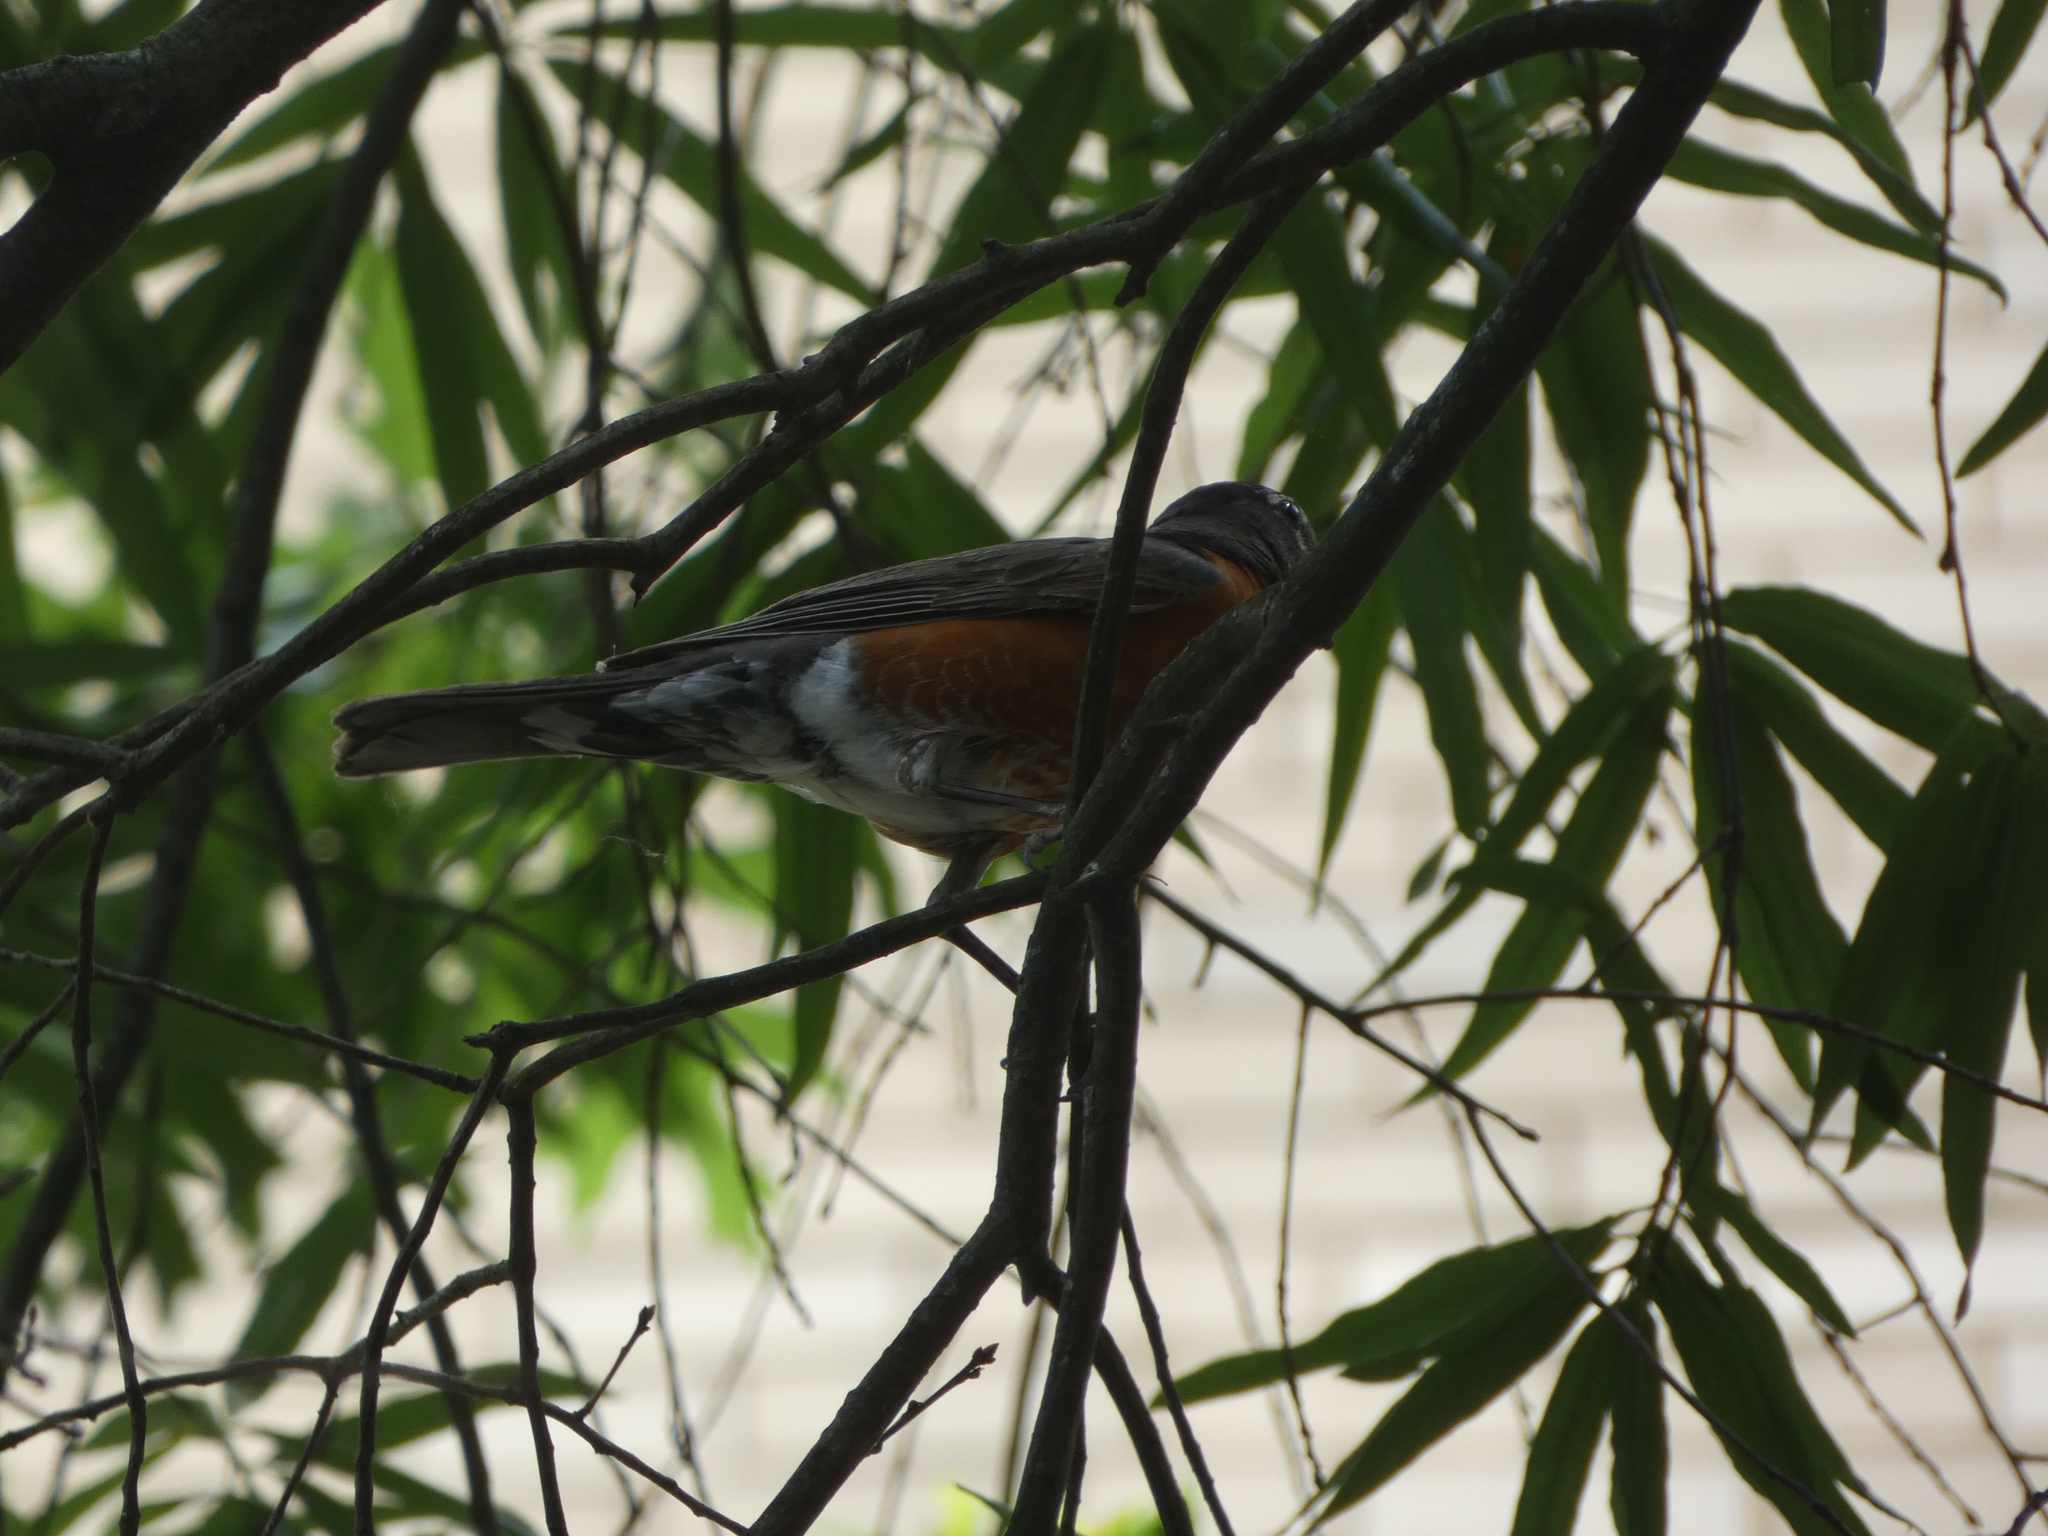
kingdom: Animalia
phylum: Chordata
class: Aves
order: Passeriformes
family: Turdidae
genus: Turdus
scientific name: Turdus migratorius
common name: American robin
